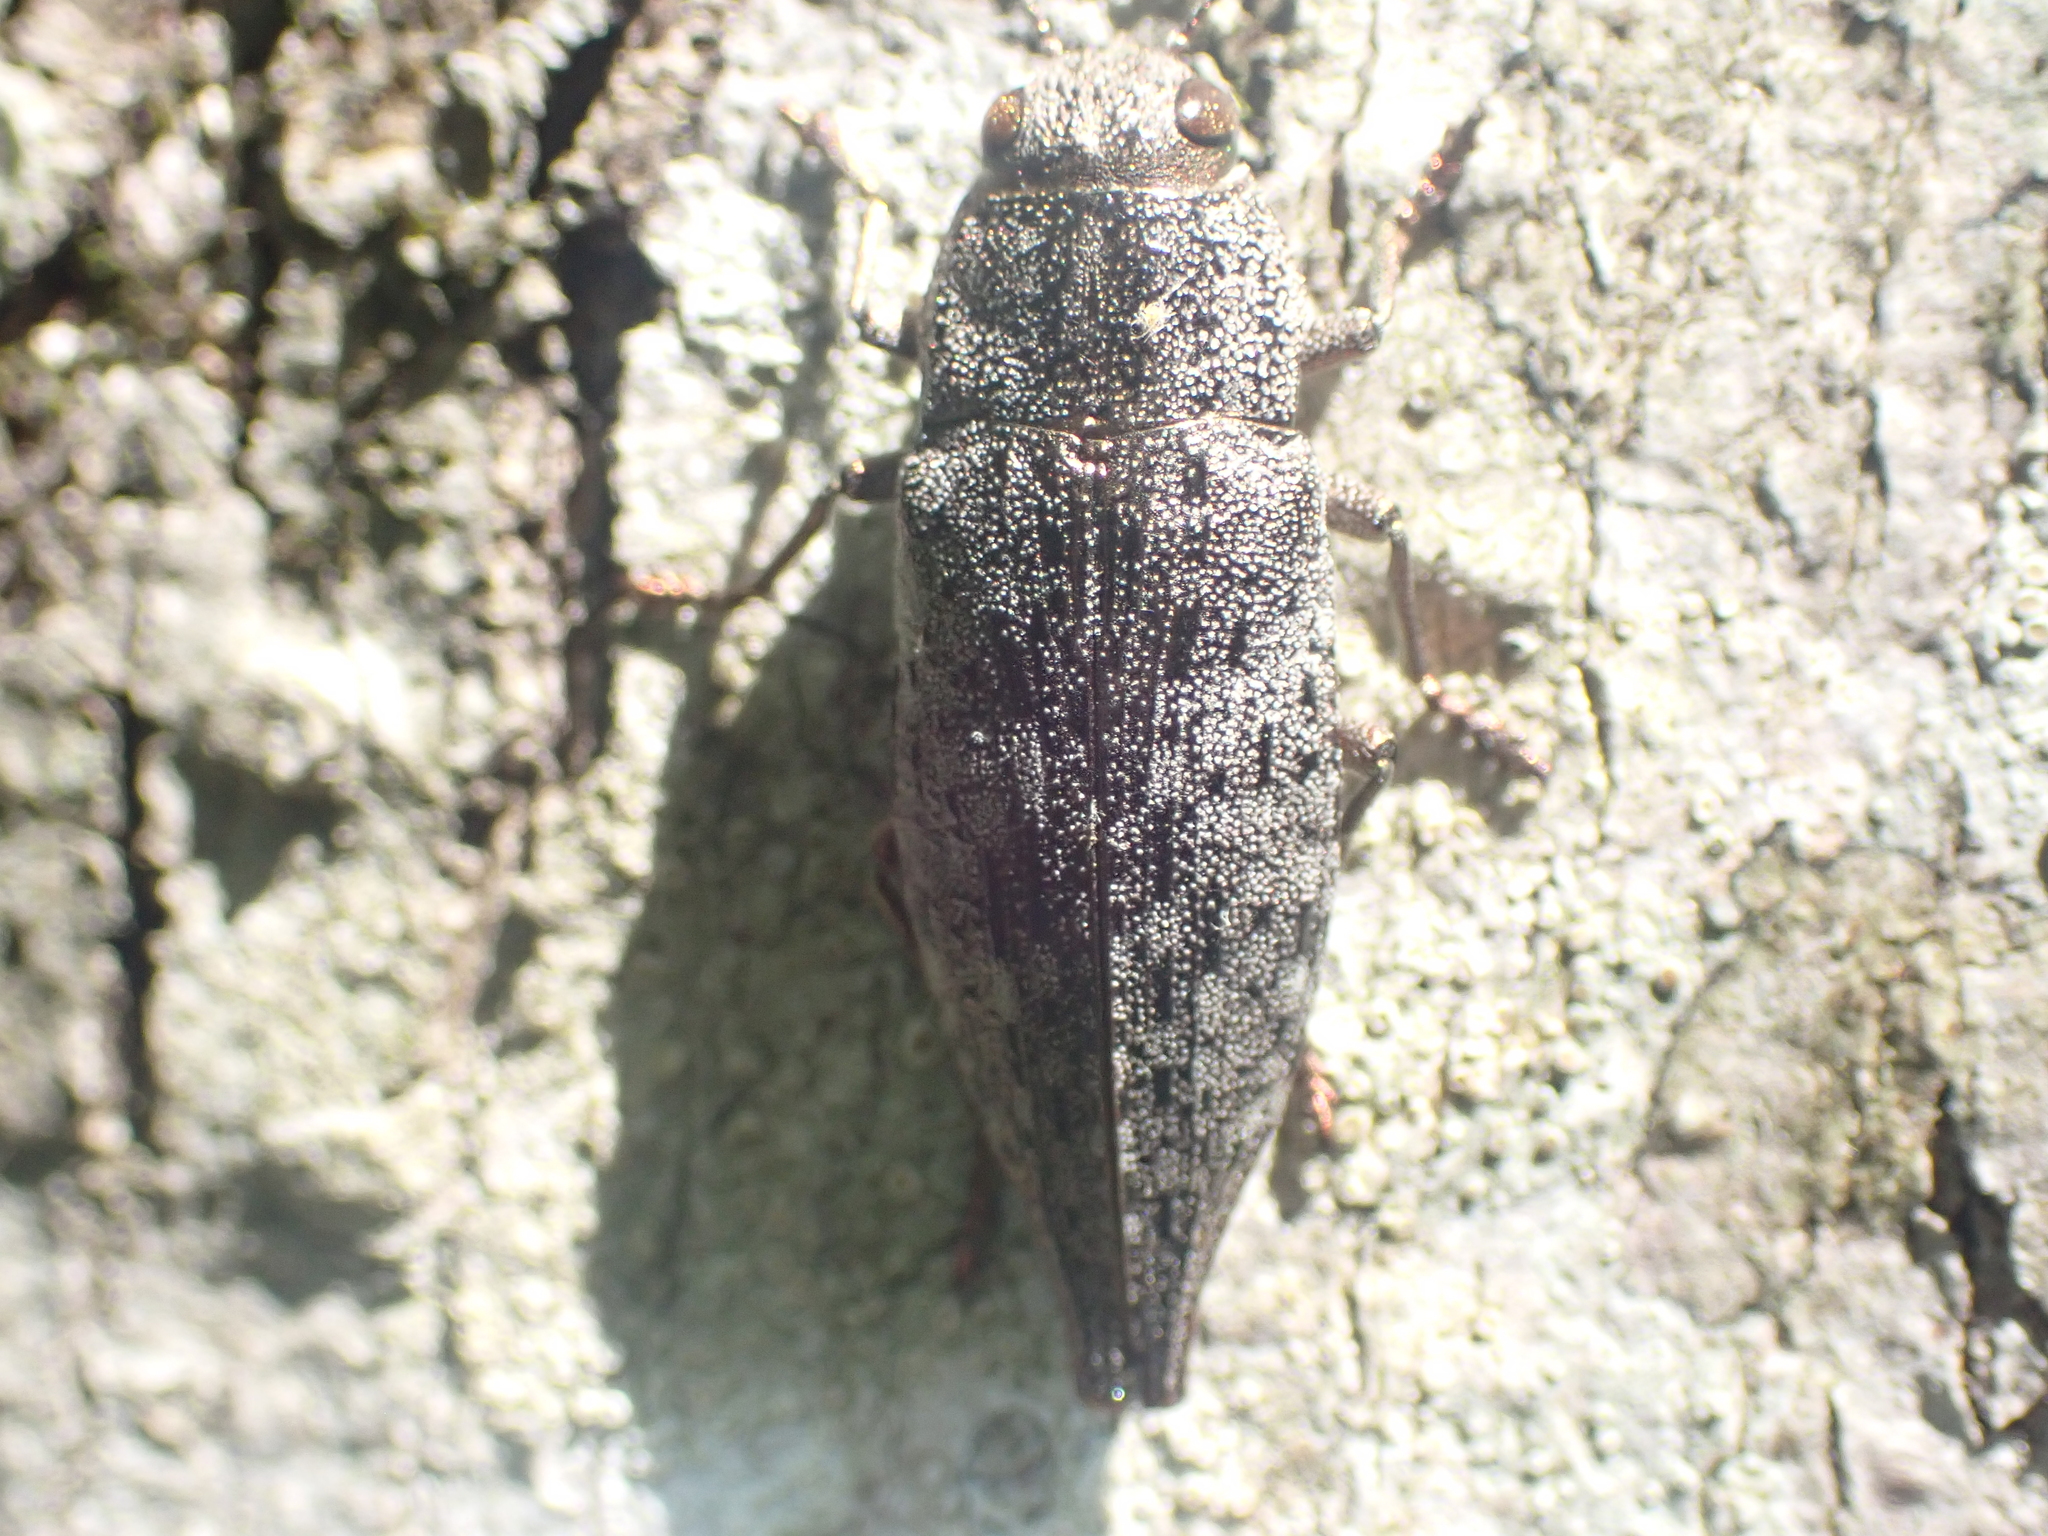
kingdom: Animalia
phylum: Arthropoda
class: Insecta
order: Coleoptera
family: Buprestidae
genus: Dicerca
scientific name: Dicerca divaricata
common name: Flat-headed hardwood borer
